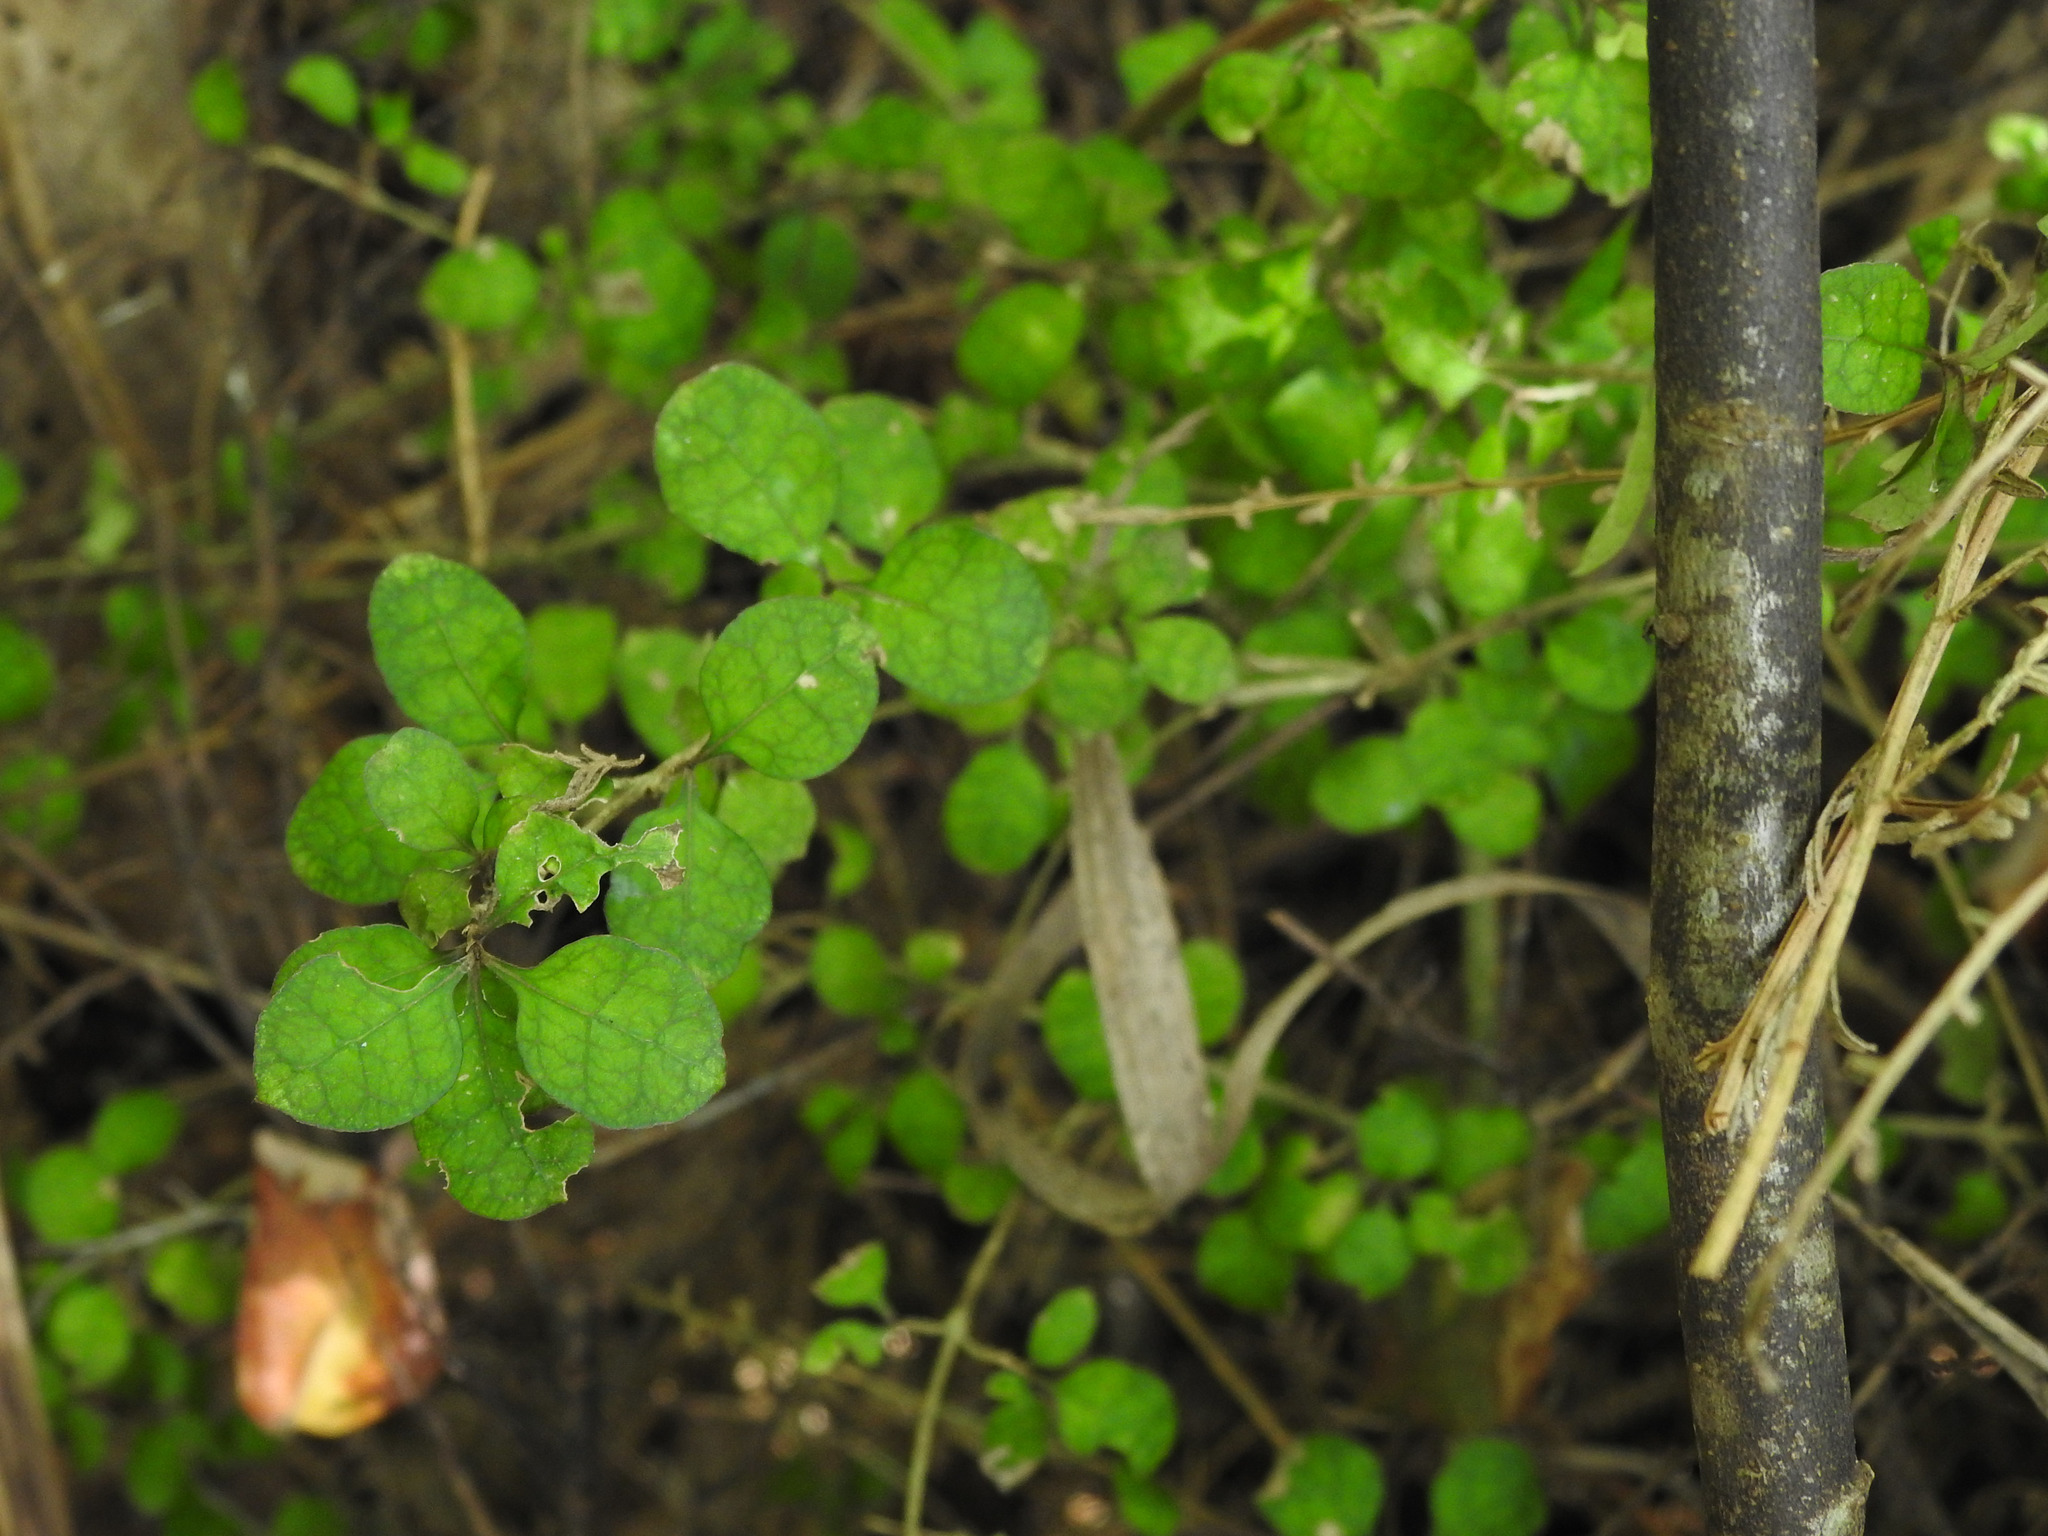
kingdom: Plantae
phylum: Tracheophyta
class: Magnoliopsida
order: Gentianales
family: Rubiaceae
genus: Coprosma
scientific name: Coprosma areolata
